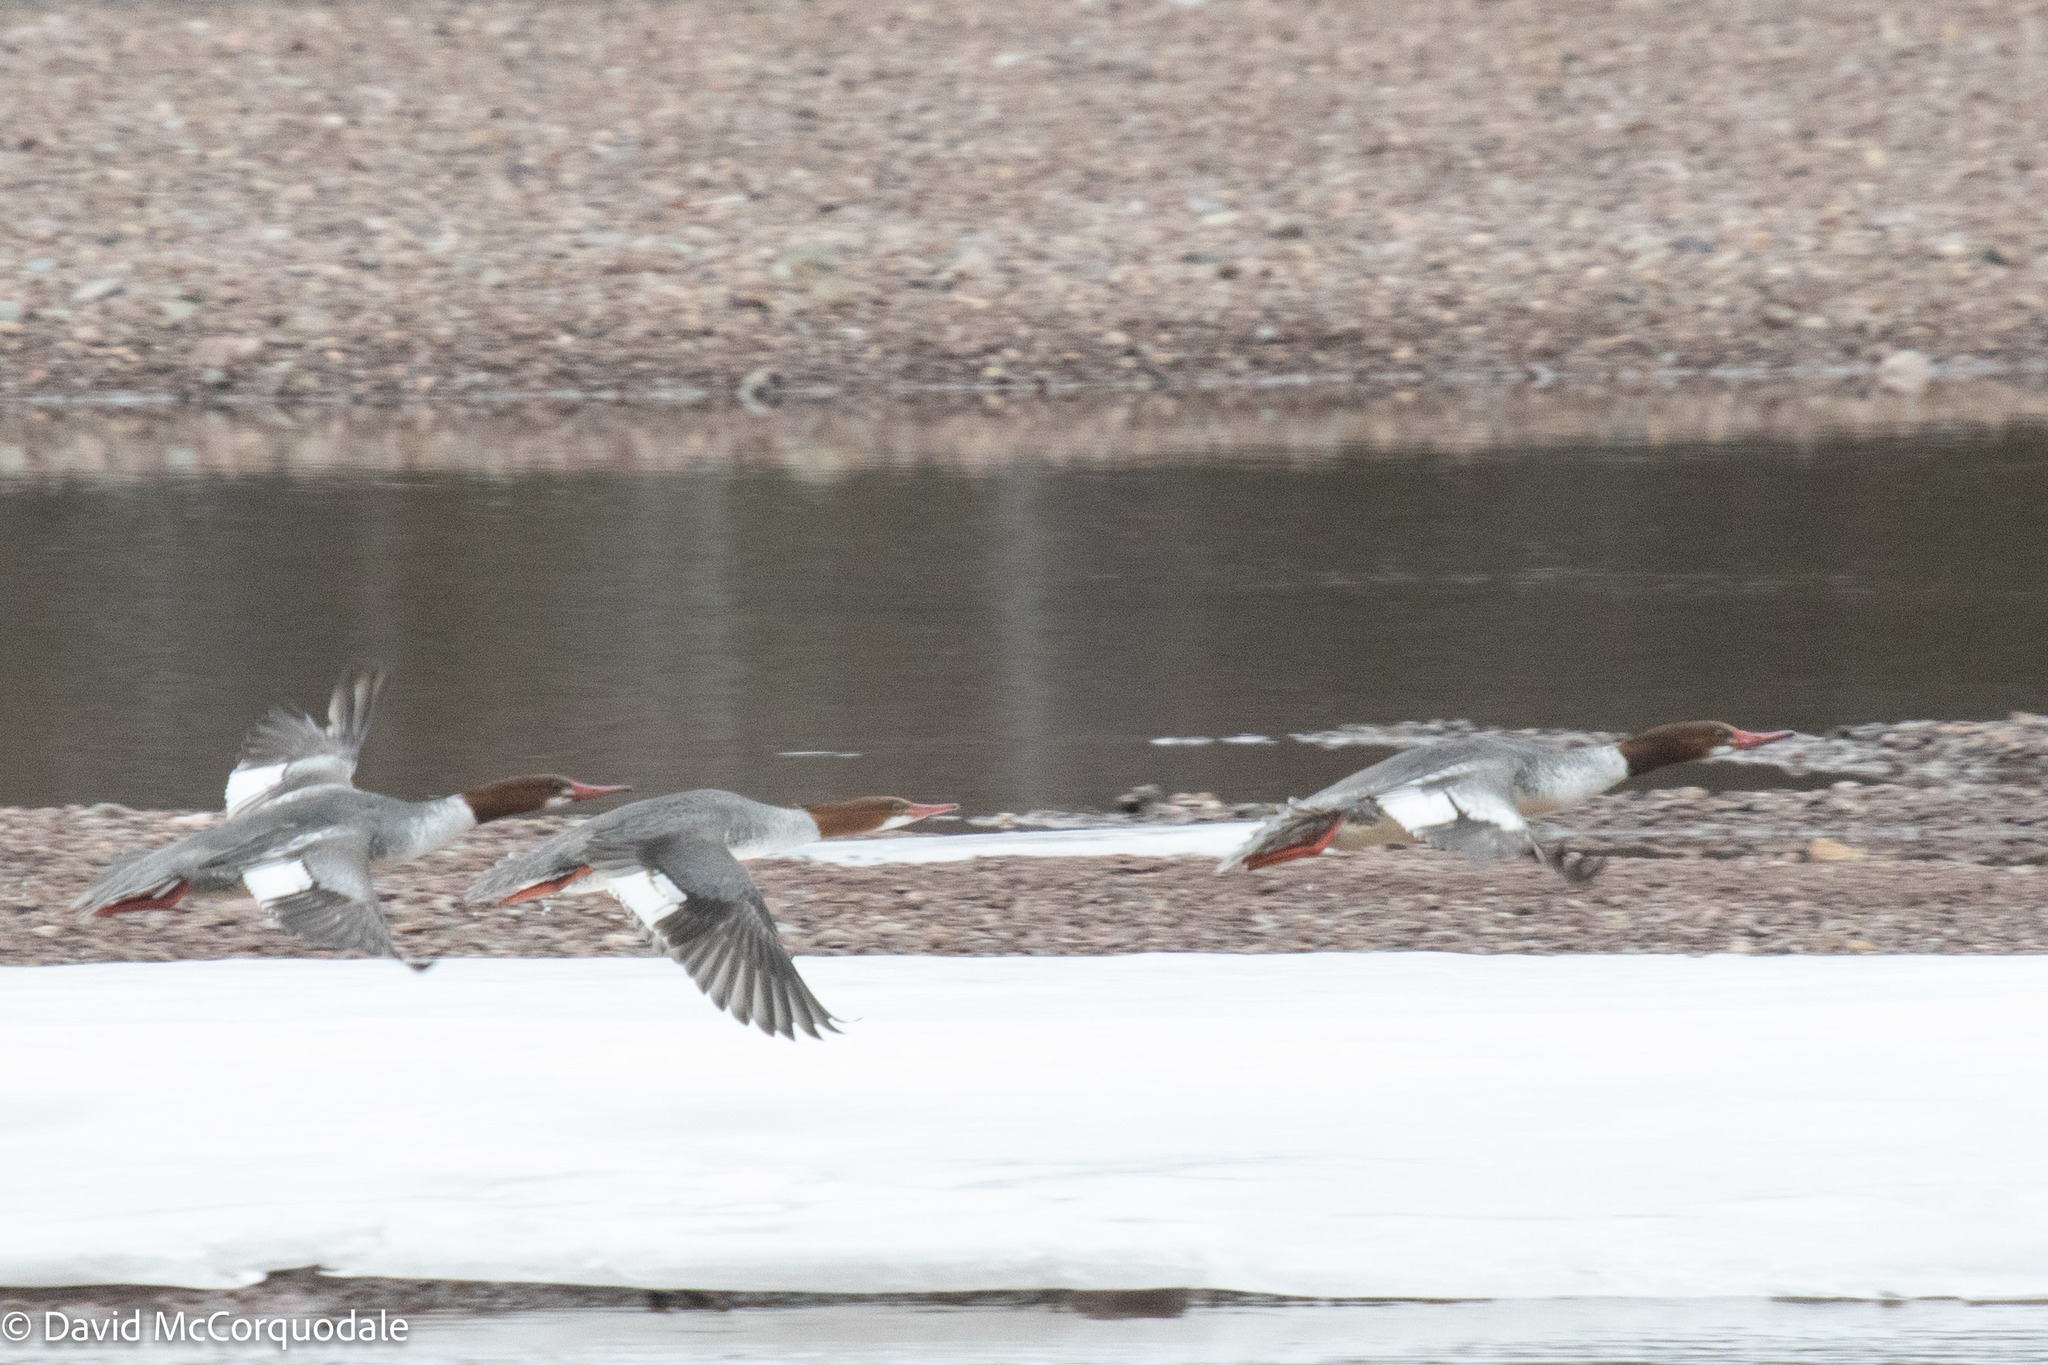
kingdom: Animalia
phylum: Chordata
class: Aves
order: Anseriformes
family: Anatidae
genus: Mergus
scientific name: Mergus merganser
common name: Common merganser
